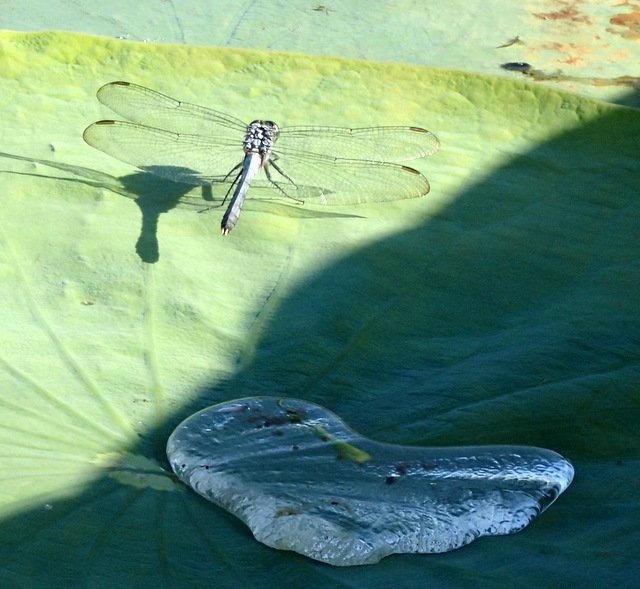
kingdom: Animalia
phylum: Arthropoda
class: Insecta
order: Odonata
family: Libellulidae
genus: Erythemis
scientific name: Erythemis simplicicollis
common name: Eastern pondhawk
